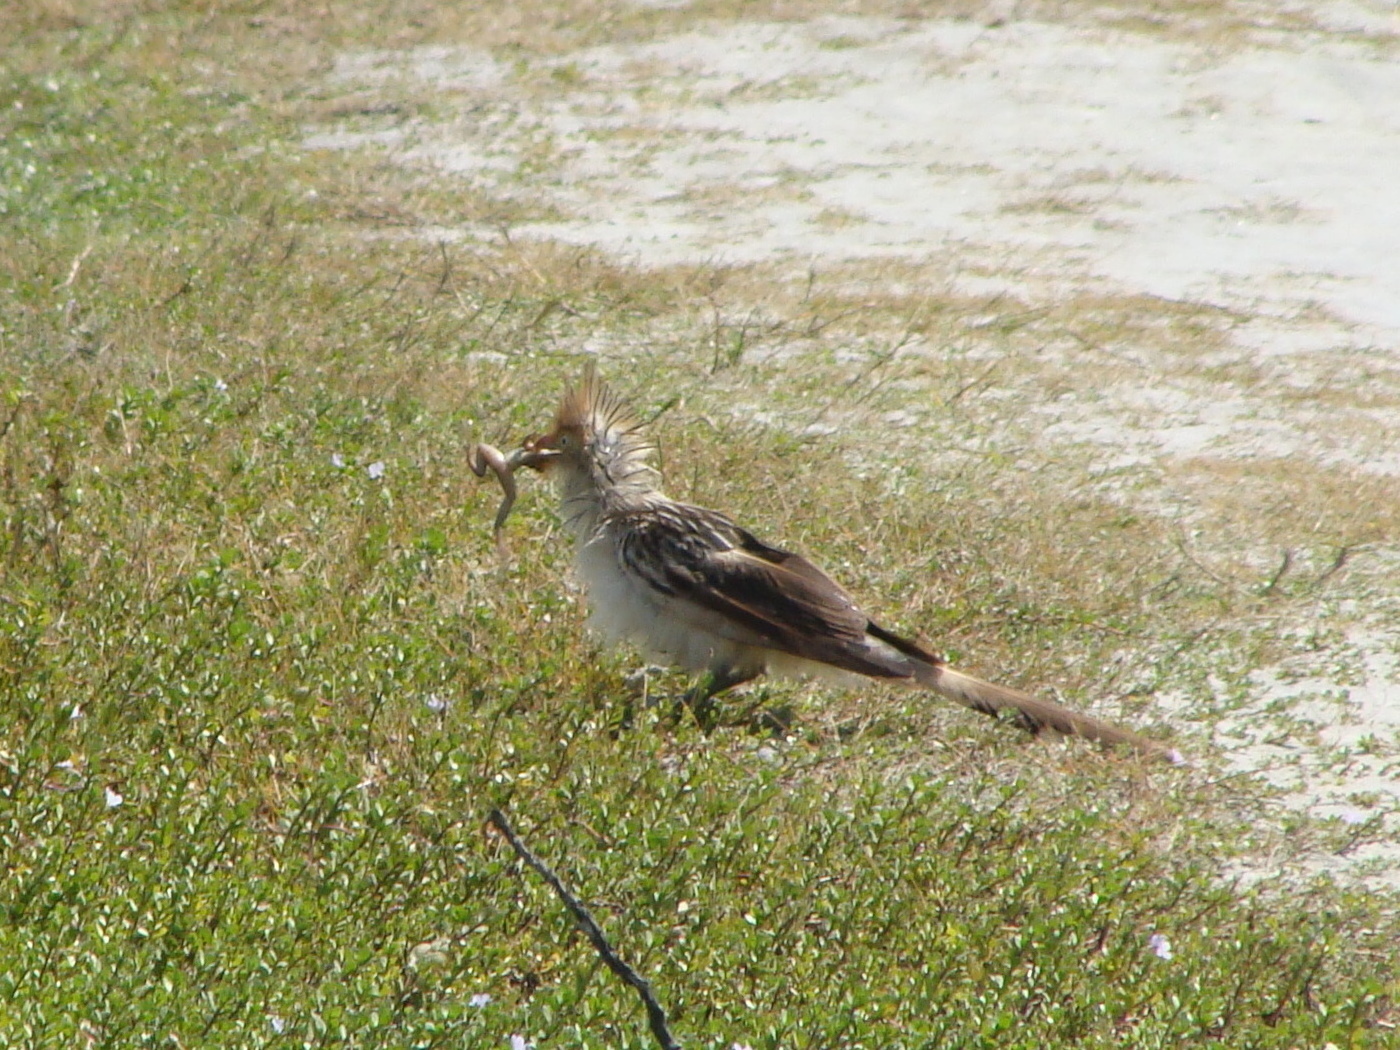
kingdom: Animalia
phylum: Chordata
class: Aves
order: Cuculiformes
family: Cuculidae
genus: Guira
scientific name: Guira guira
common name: Guira cuckoo
